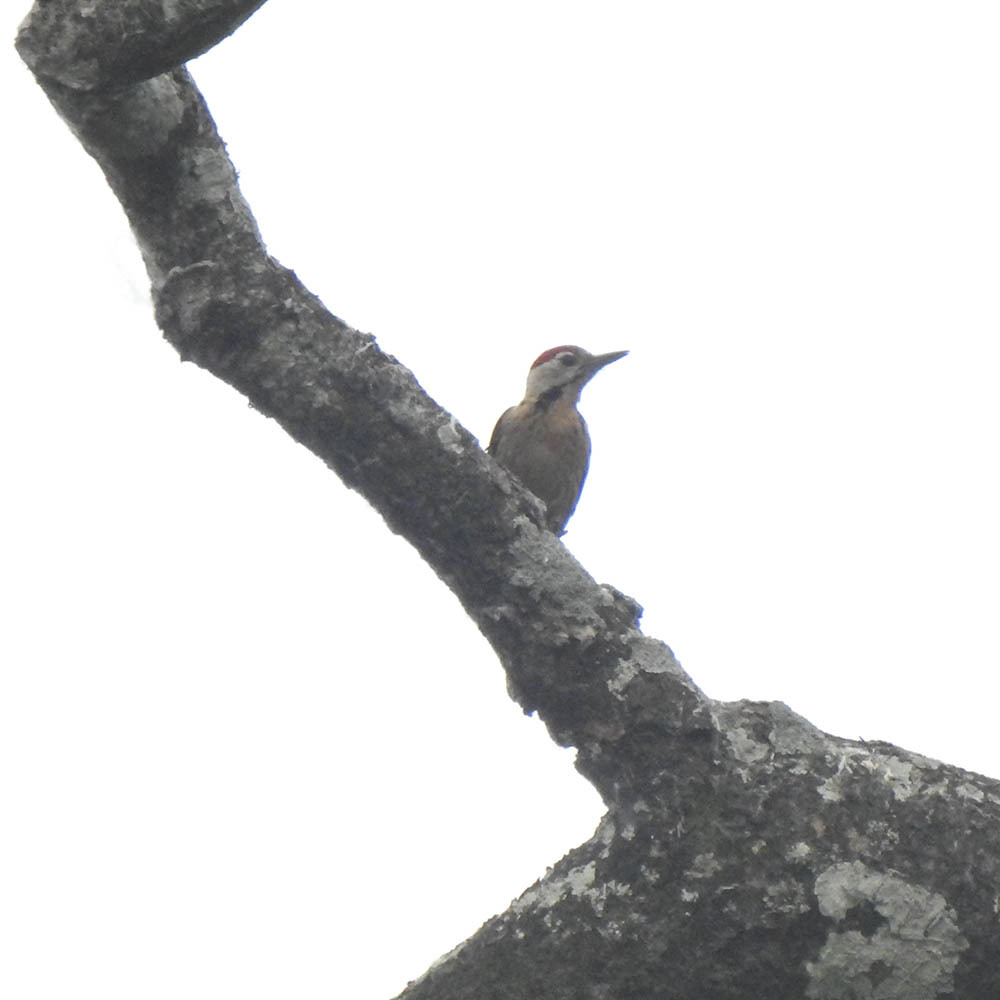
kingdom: Animalia
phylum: Chordata
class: Aves
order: Piciformes
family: Picidae
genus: Dendrocopos
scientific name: Dendrocopos macei
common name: Fulvous-breasted woodpecker
